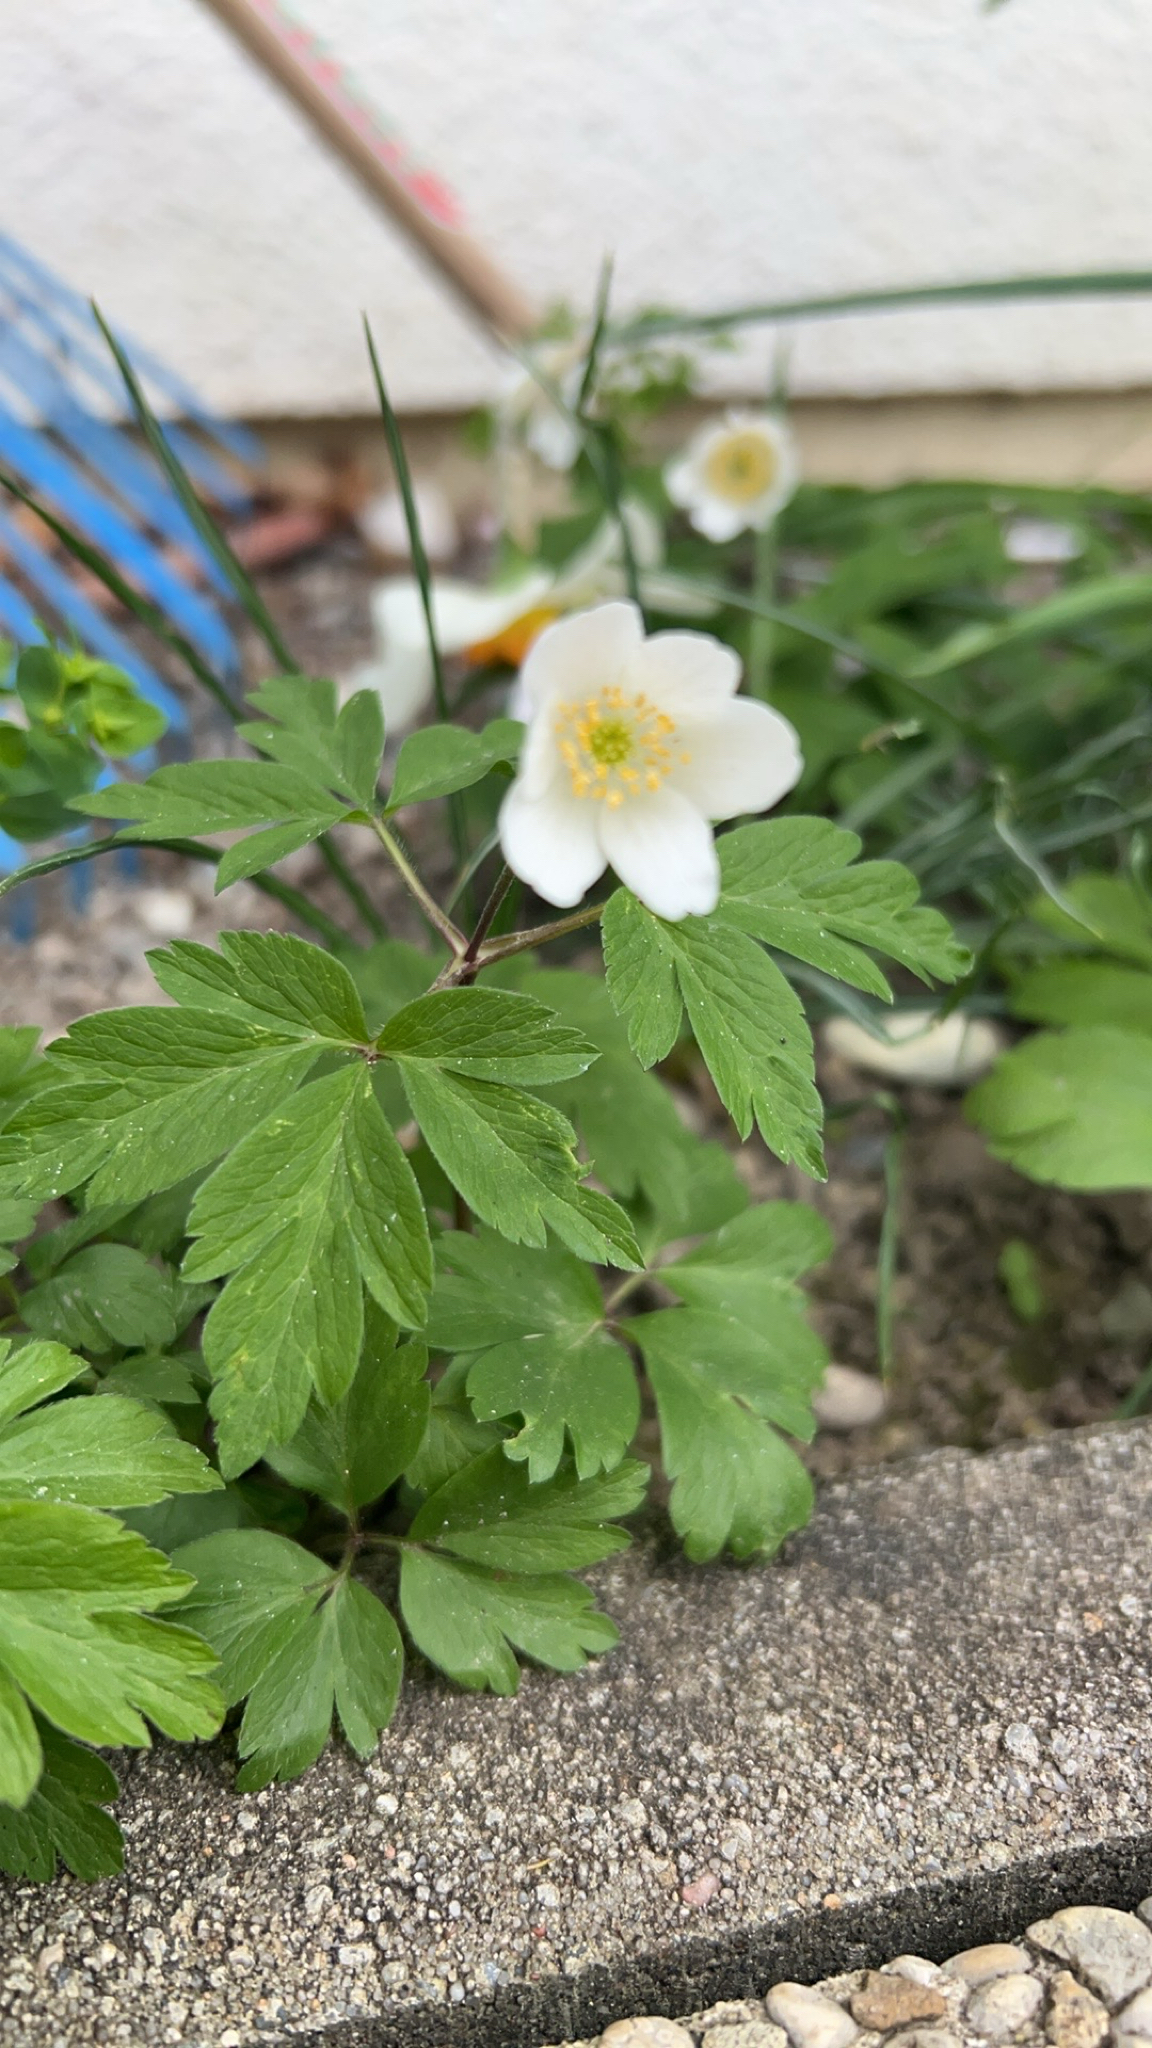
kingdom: Plantae
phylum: Tracheophyta
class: Magnoliopsida
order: Ranunculales
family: Ranunculaceae
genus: Anemone
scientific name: Anemone nemorosa
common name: Wood anemone
